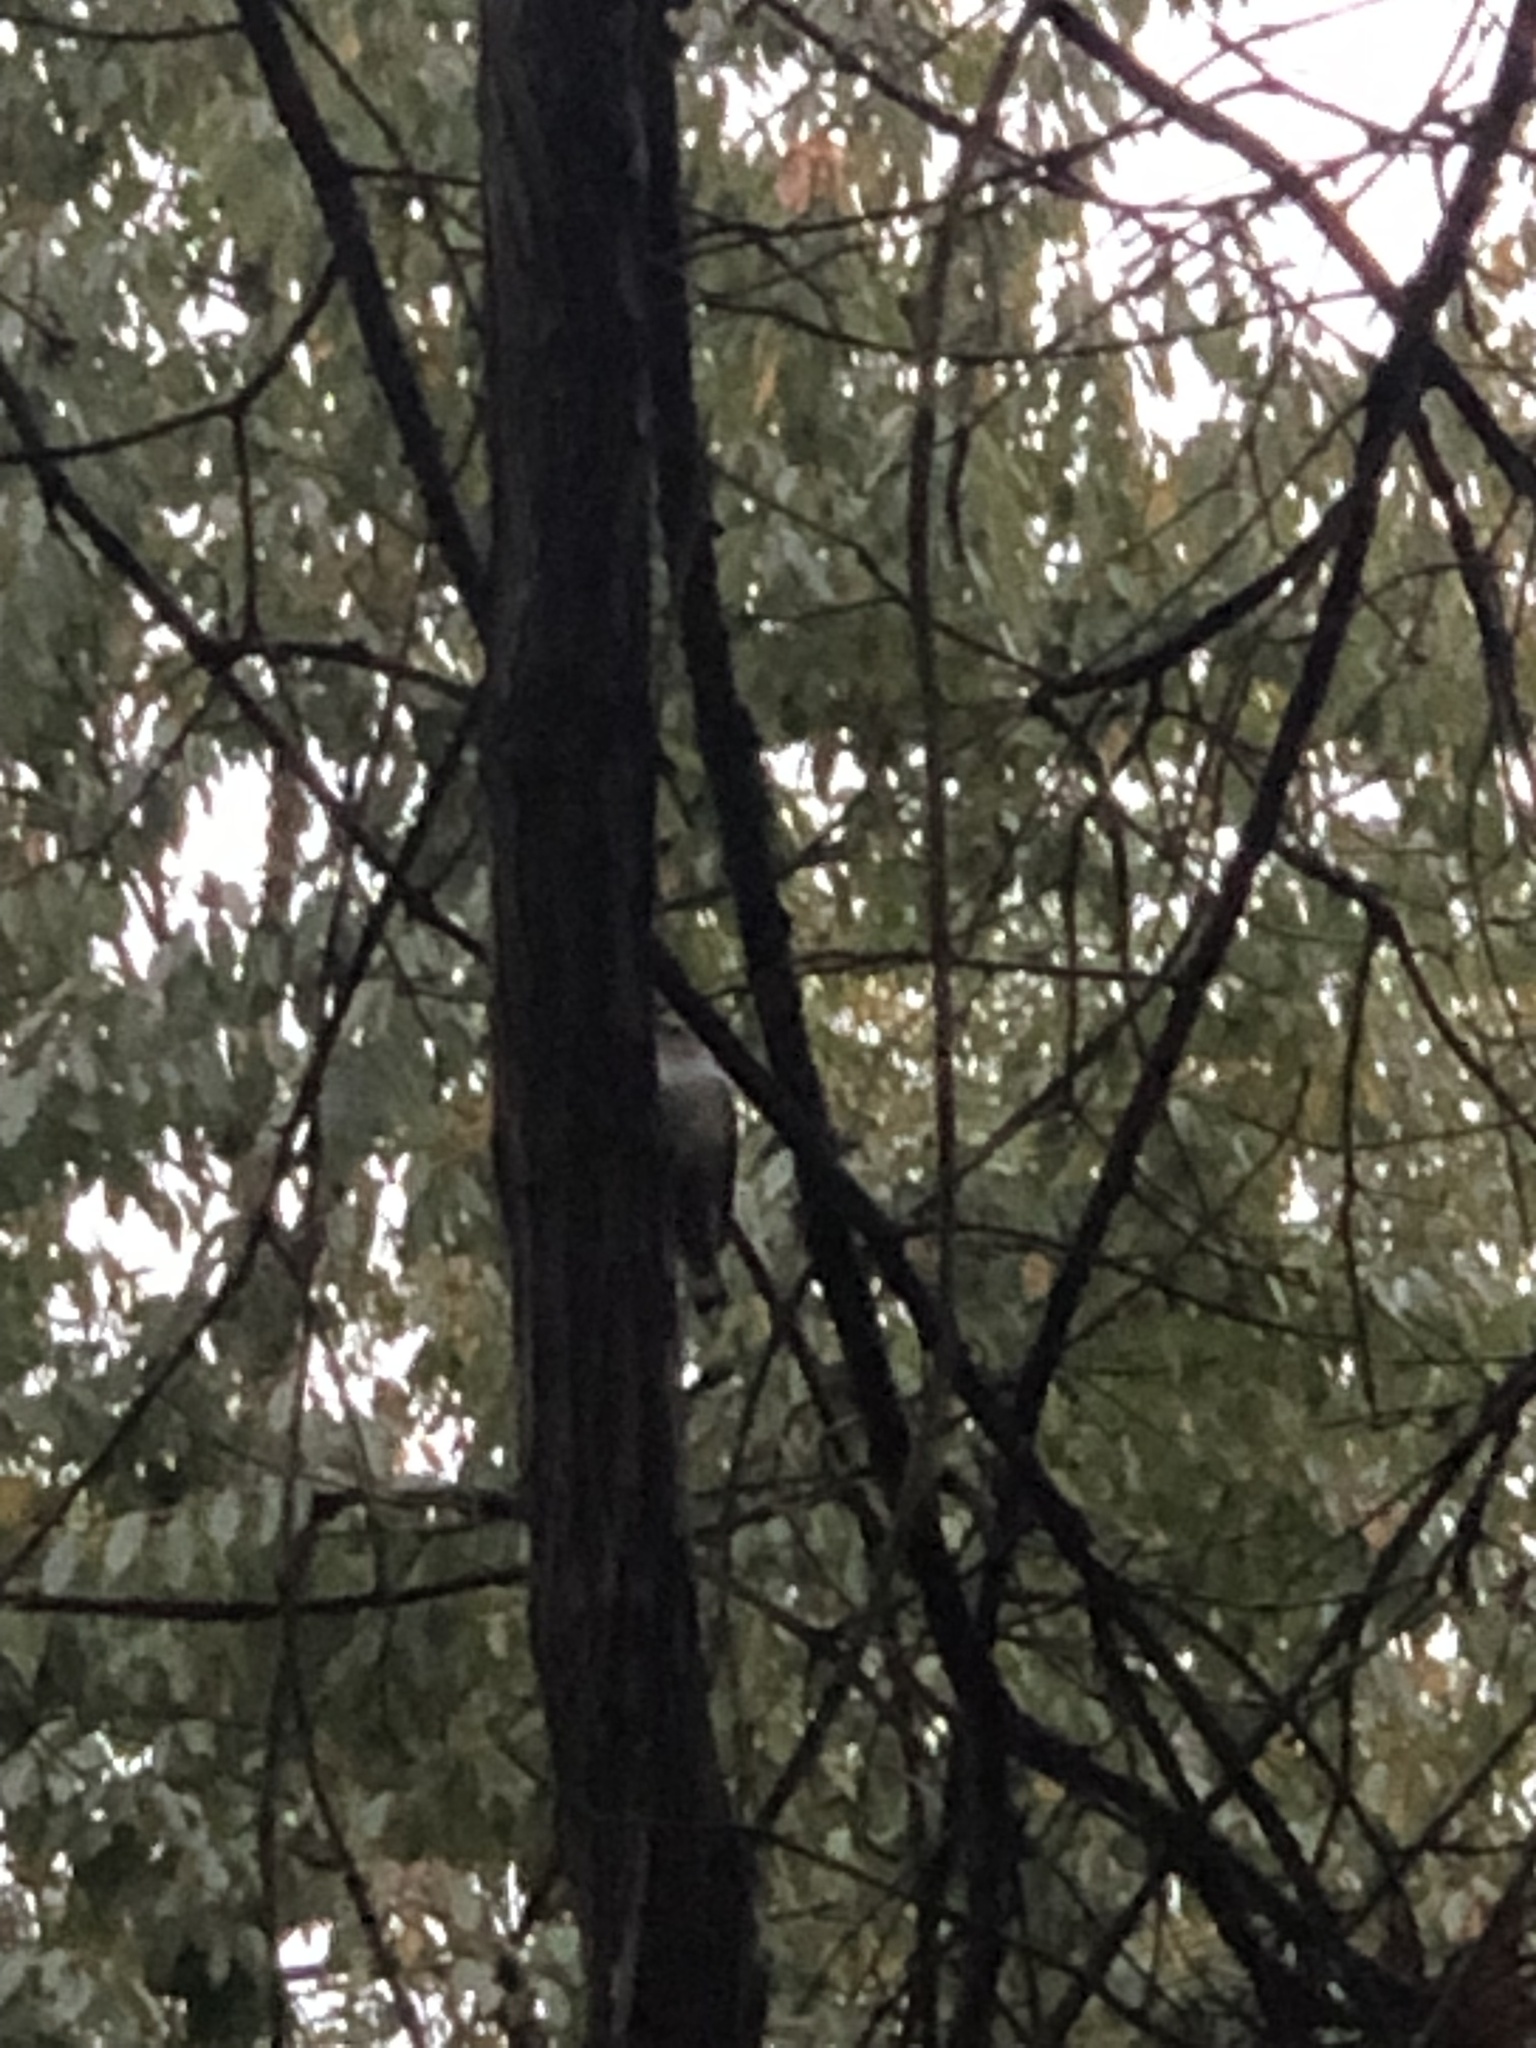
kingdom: Animalia
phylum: Chordata
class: Aves
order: Passeriformes
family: Sittidae
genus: Sitta
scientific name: Sitta carolinensis
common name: White-breasted nuthatch
